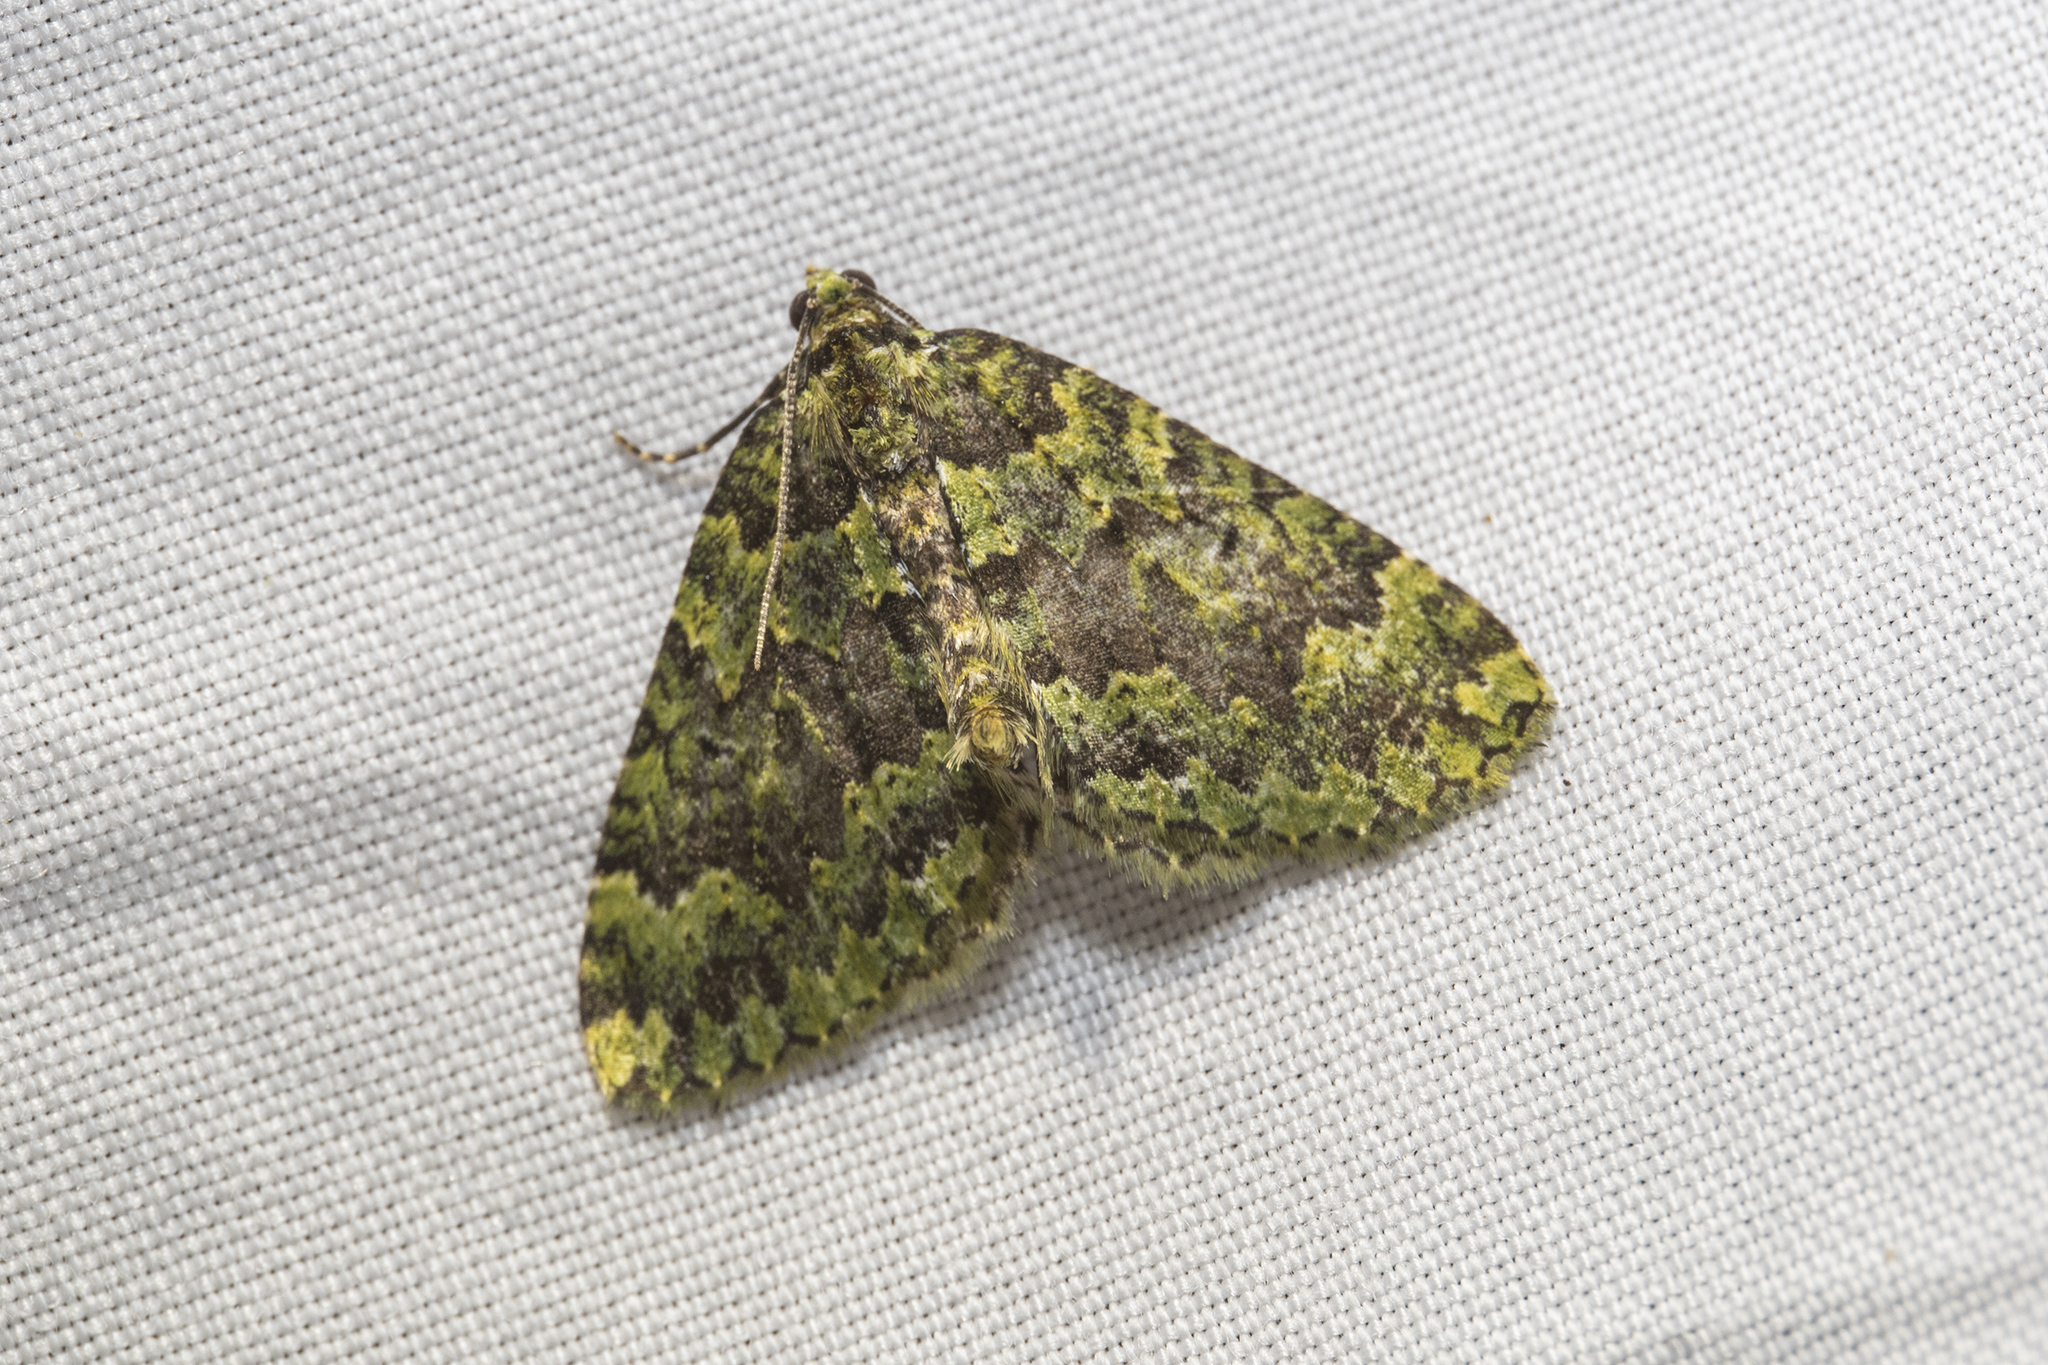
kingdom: Animalia
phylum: Arthropoda
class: Insecta
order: Lepidoptera
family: Geometridae
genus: Austrocidaria
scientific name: Austrocidaria callichlora
